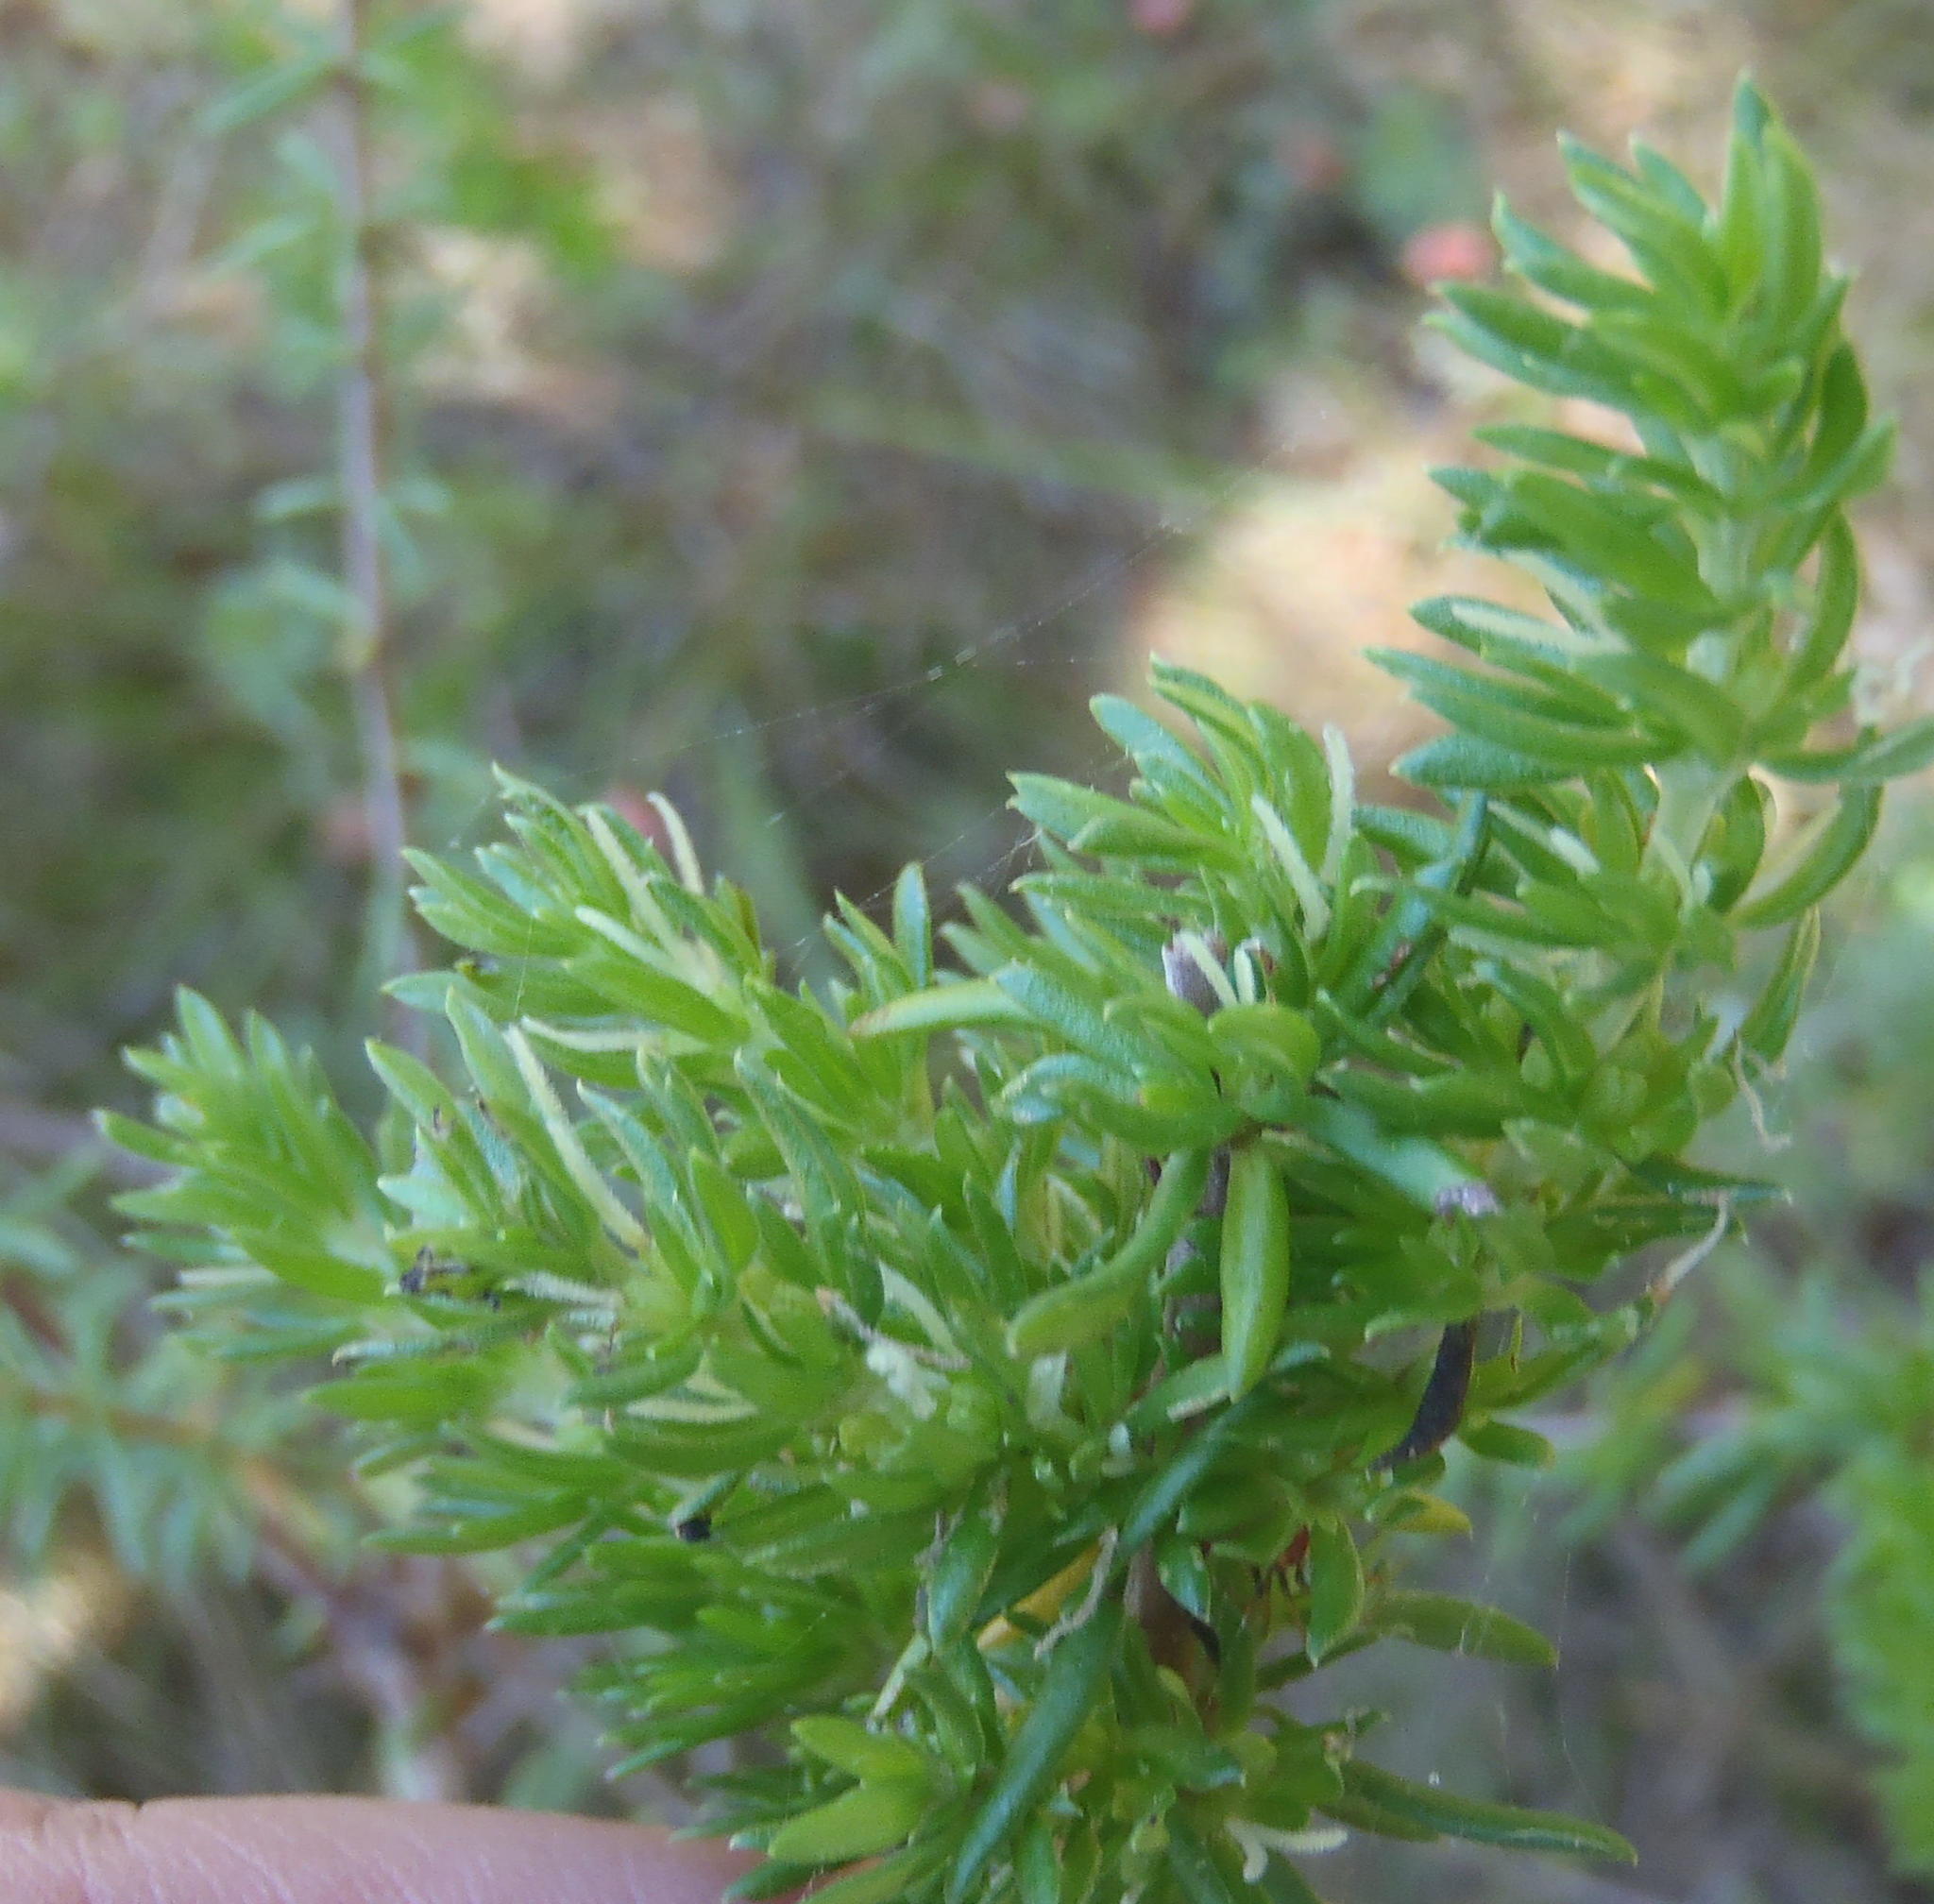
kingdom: Plantae
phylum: Tracheophyta
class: Magnoliopsida
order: Gentianales
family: Rubiaceae
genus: Anthospermum
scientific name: Anthospermum aethiopicum
